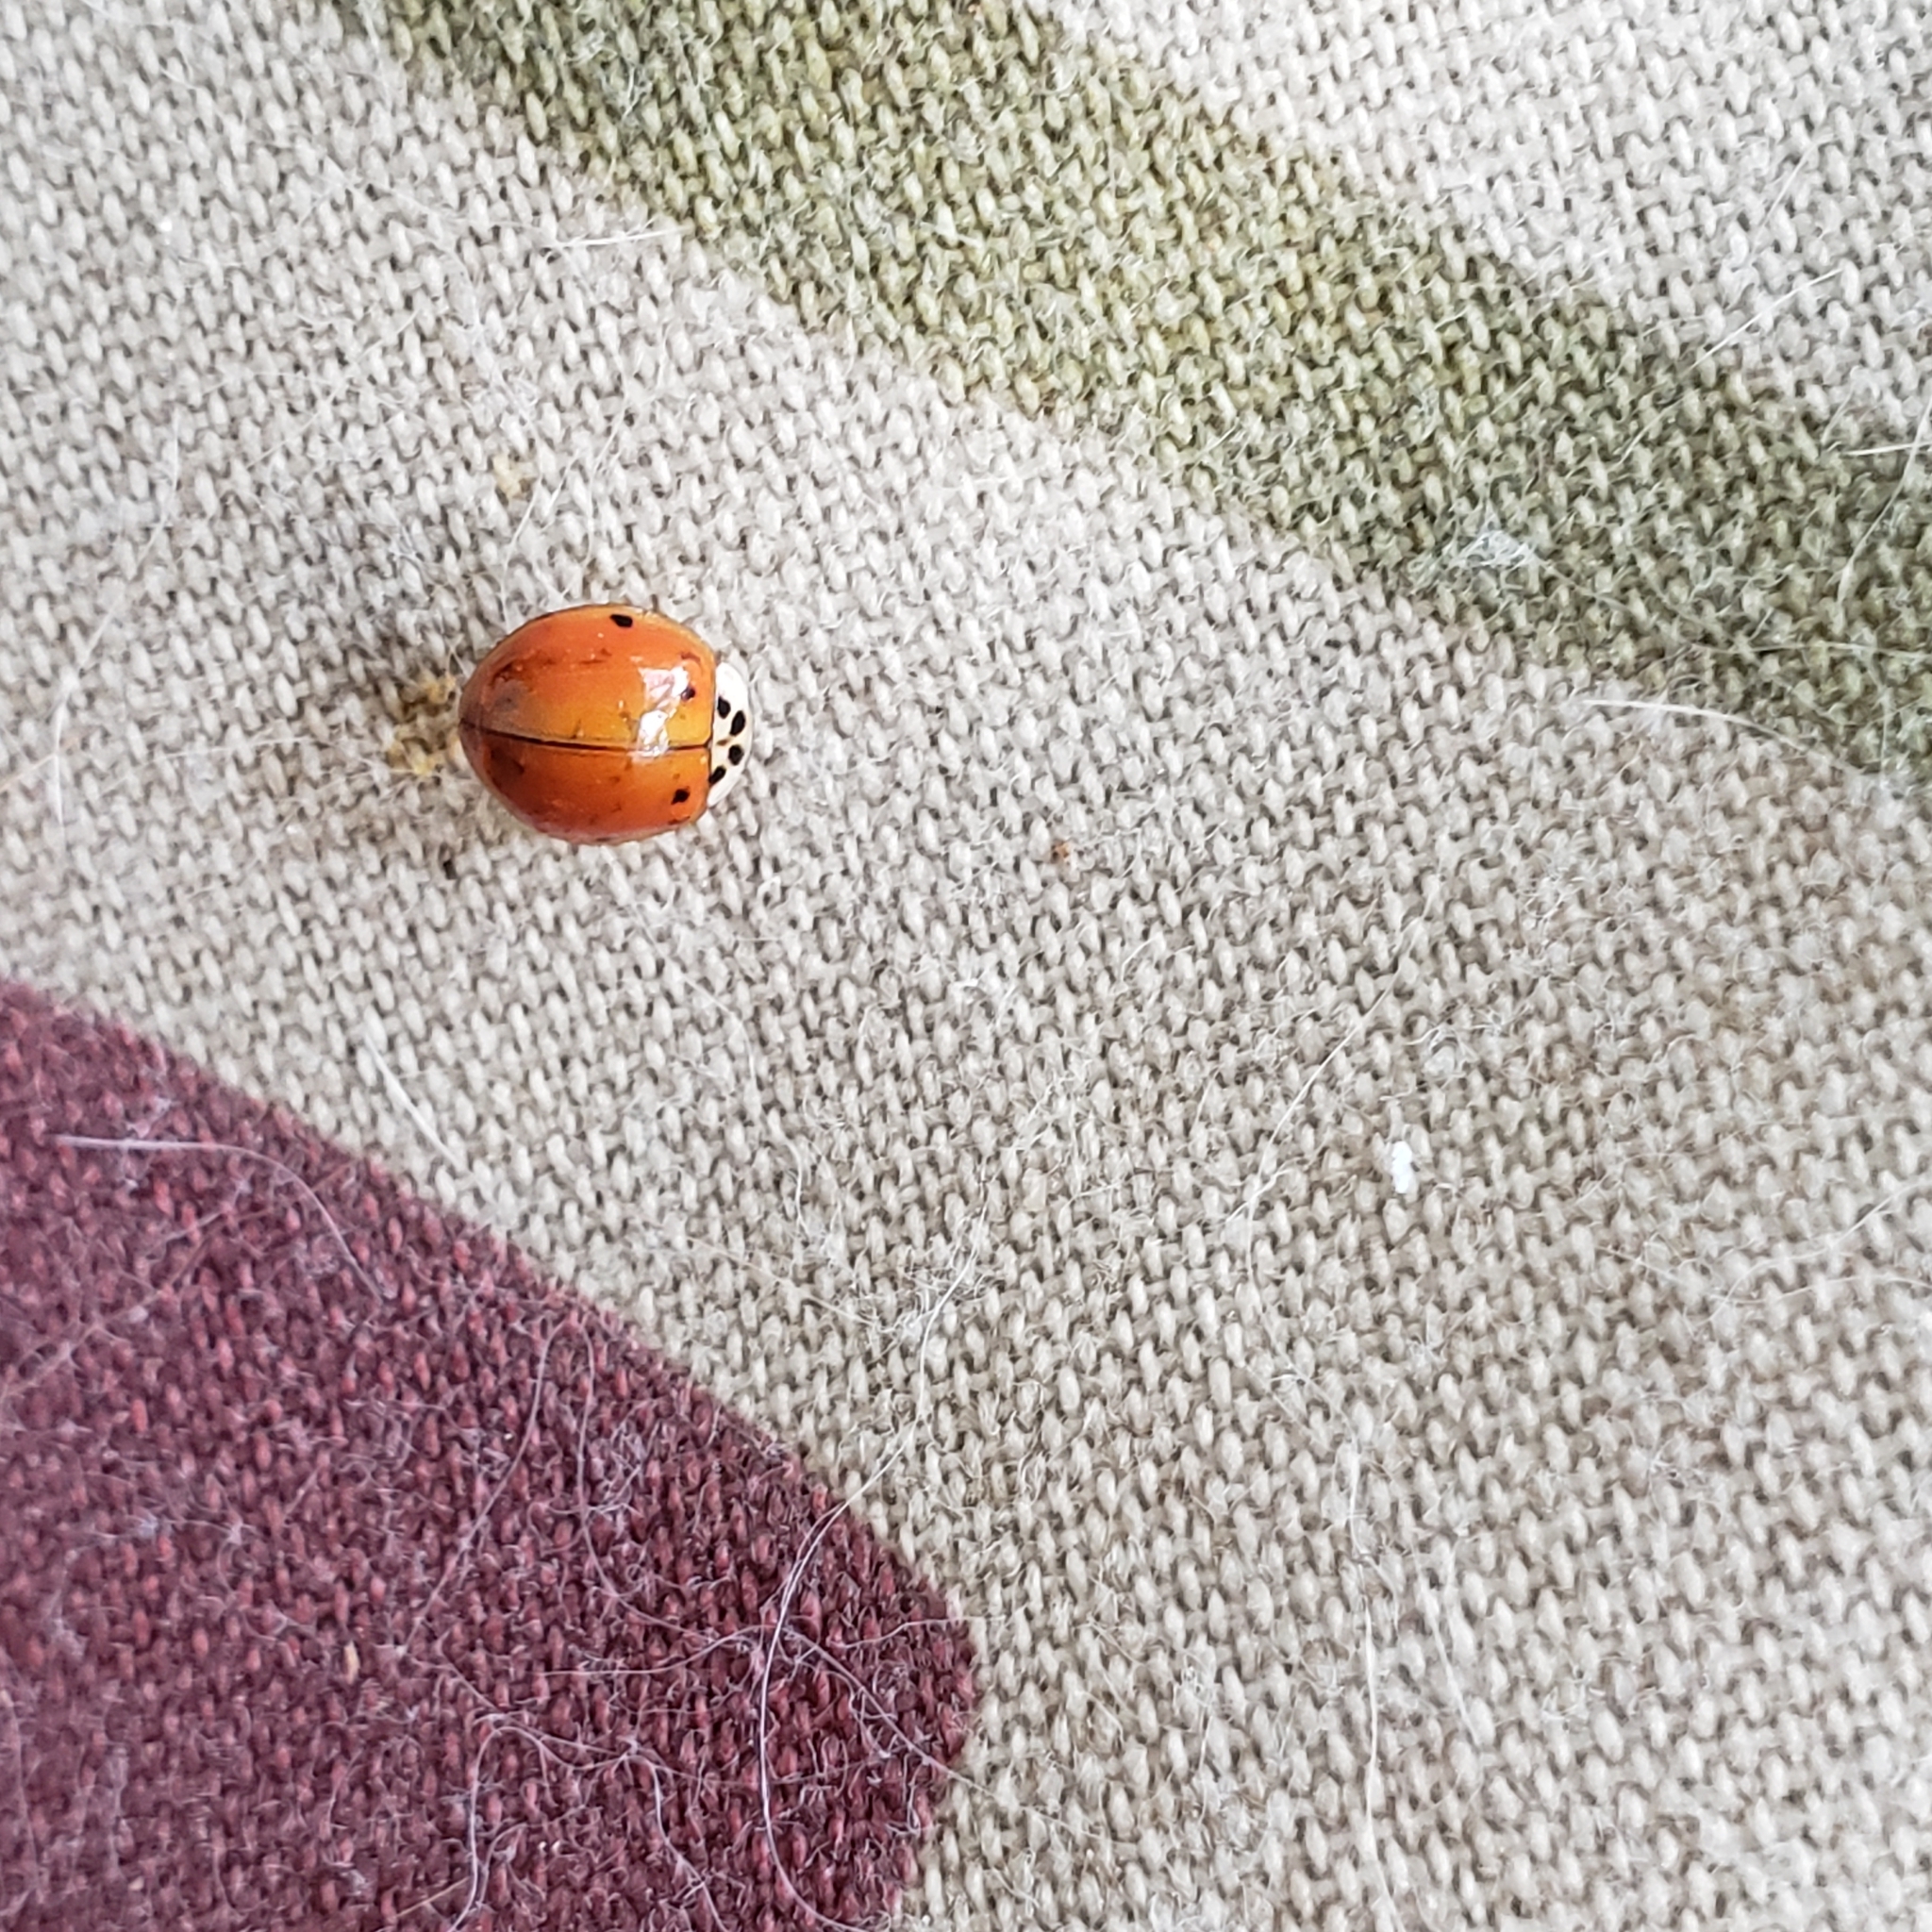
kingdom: Animalia
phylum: Arthropoda
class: Insecta
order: Coleoptera
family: Coccinellidae
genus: Harmonia
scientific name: Harmonia axyridis
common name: Harlequin ladybird
